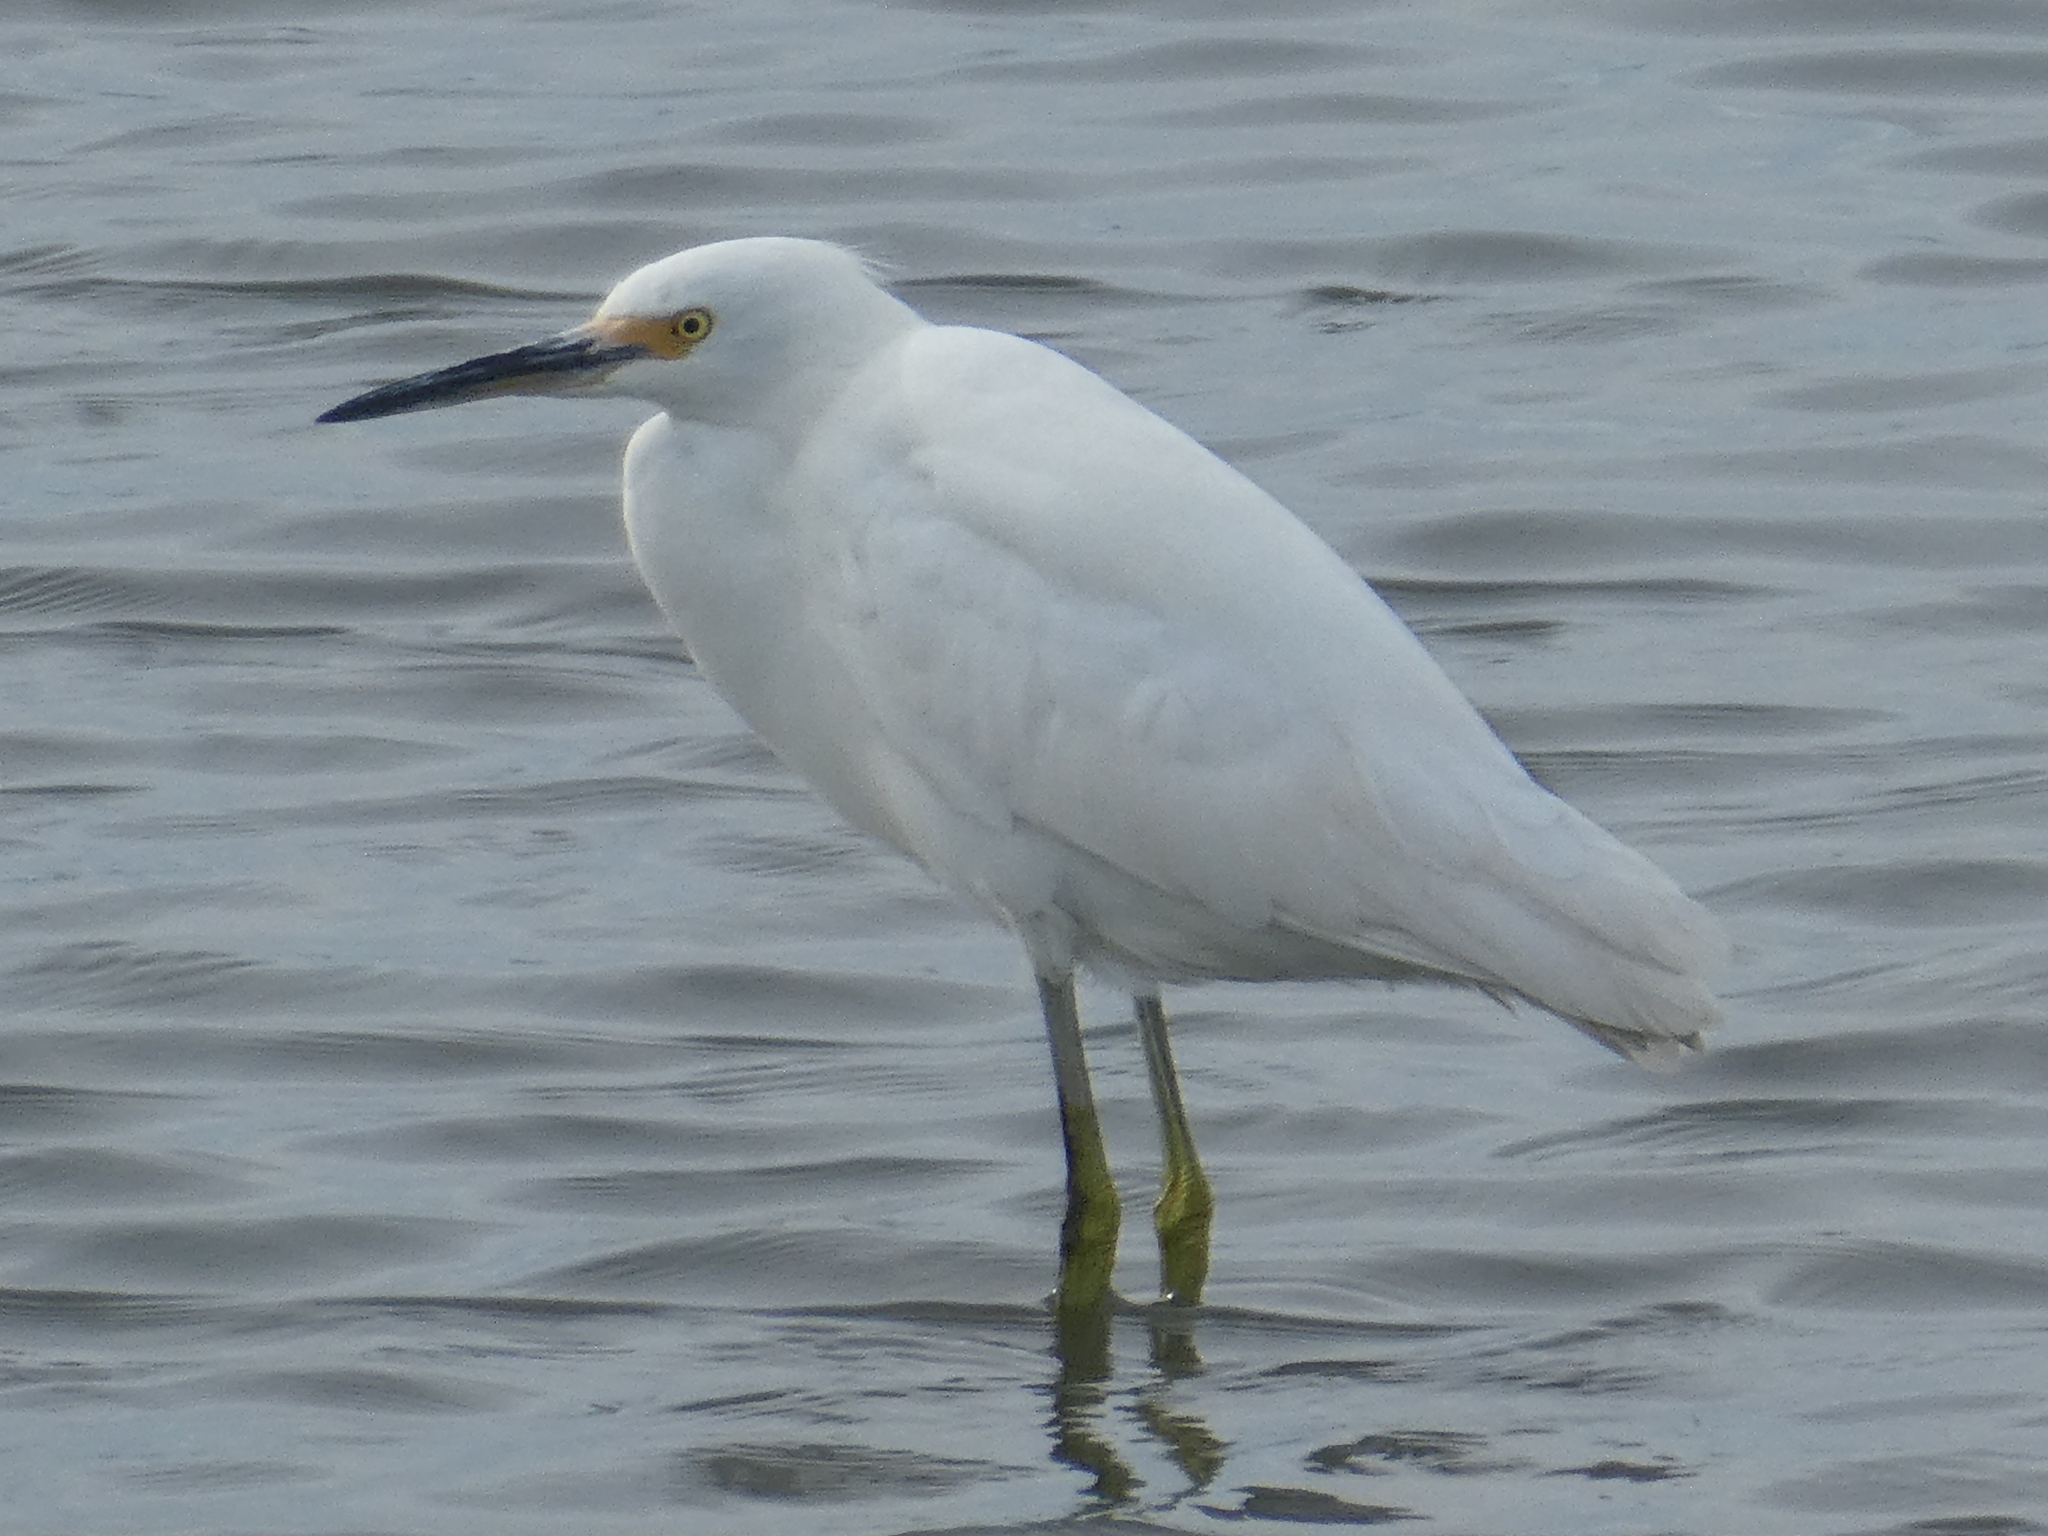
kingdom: Animalia
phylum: Chordata
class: Aves
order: Pelecaniformes
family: Ardeidae
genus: Egretta
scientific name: Egretta thula
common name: Snowy egret
